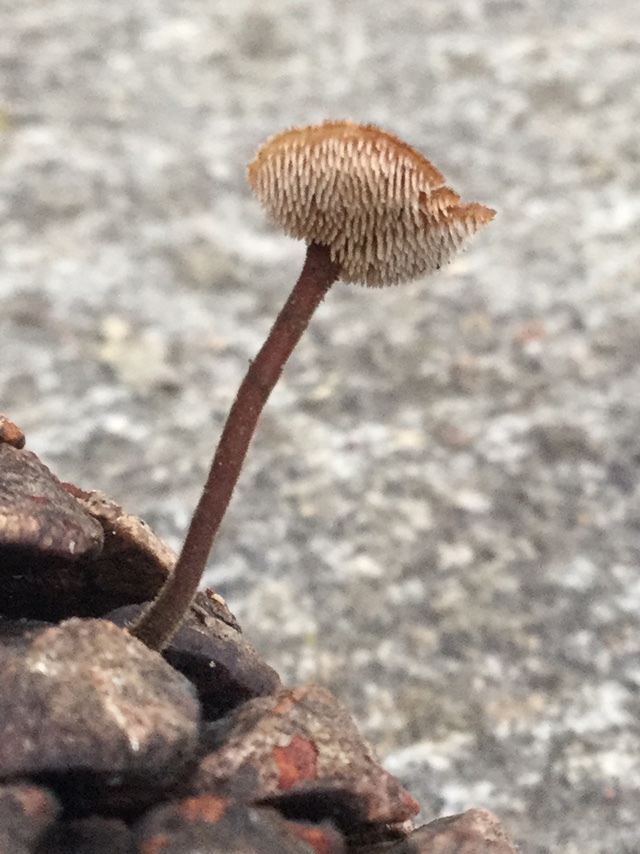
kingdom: Fungi
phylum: Basidiomycota
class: Agaricomycetes
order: Russulales
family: Auriscalpiaceae
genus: Auriscalpium
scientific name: Auriscalpium vulgare
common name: Earpick fungus
